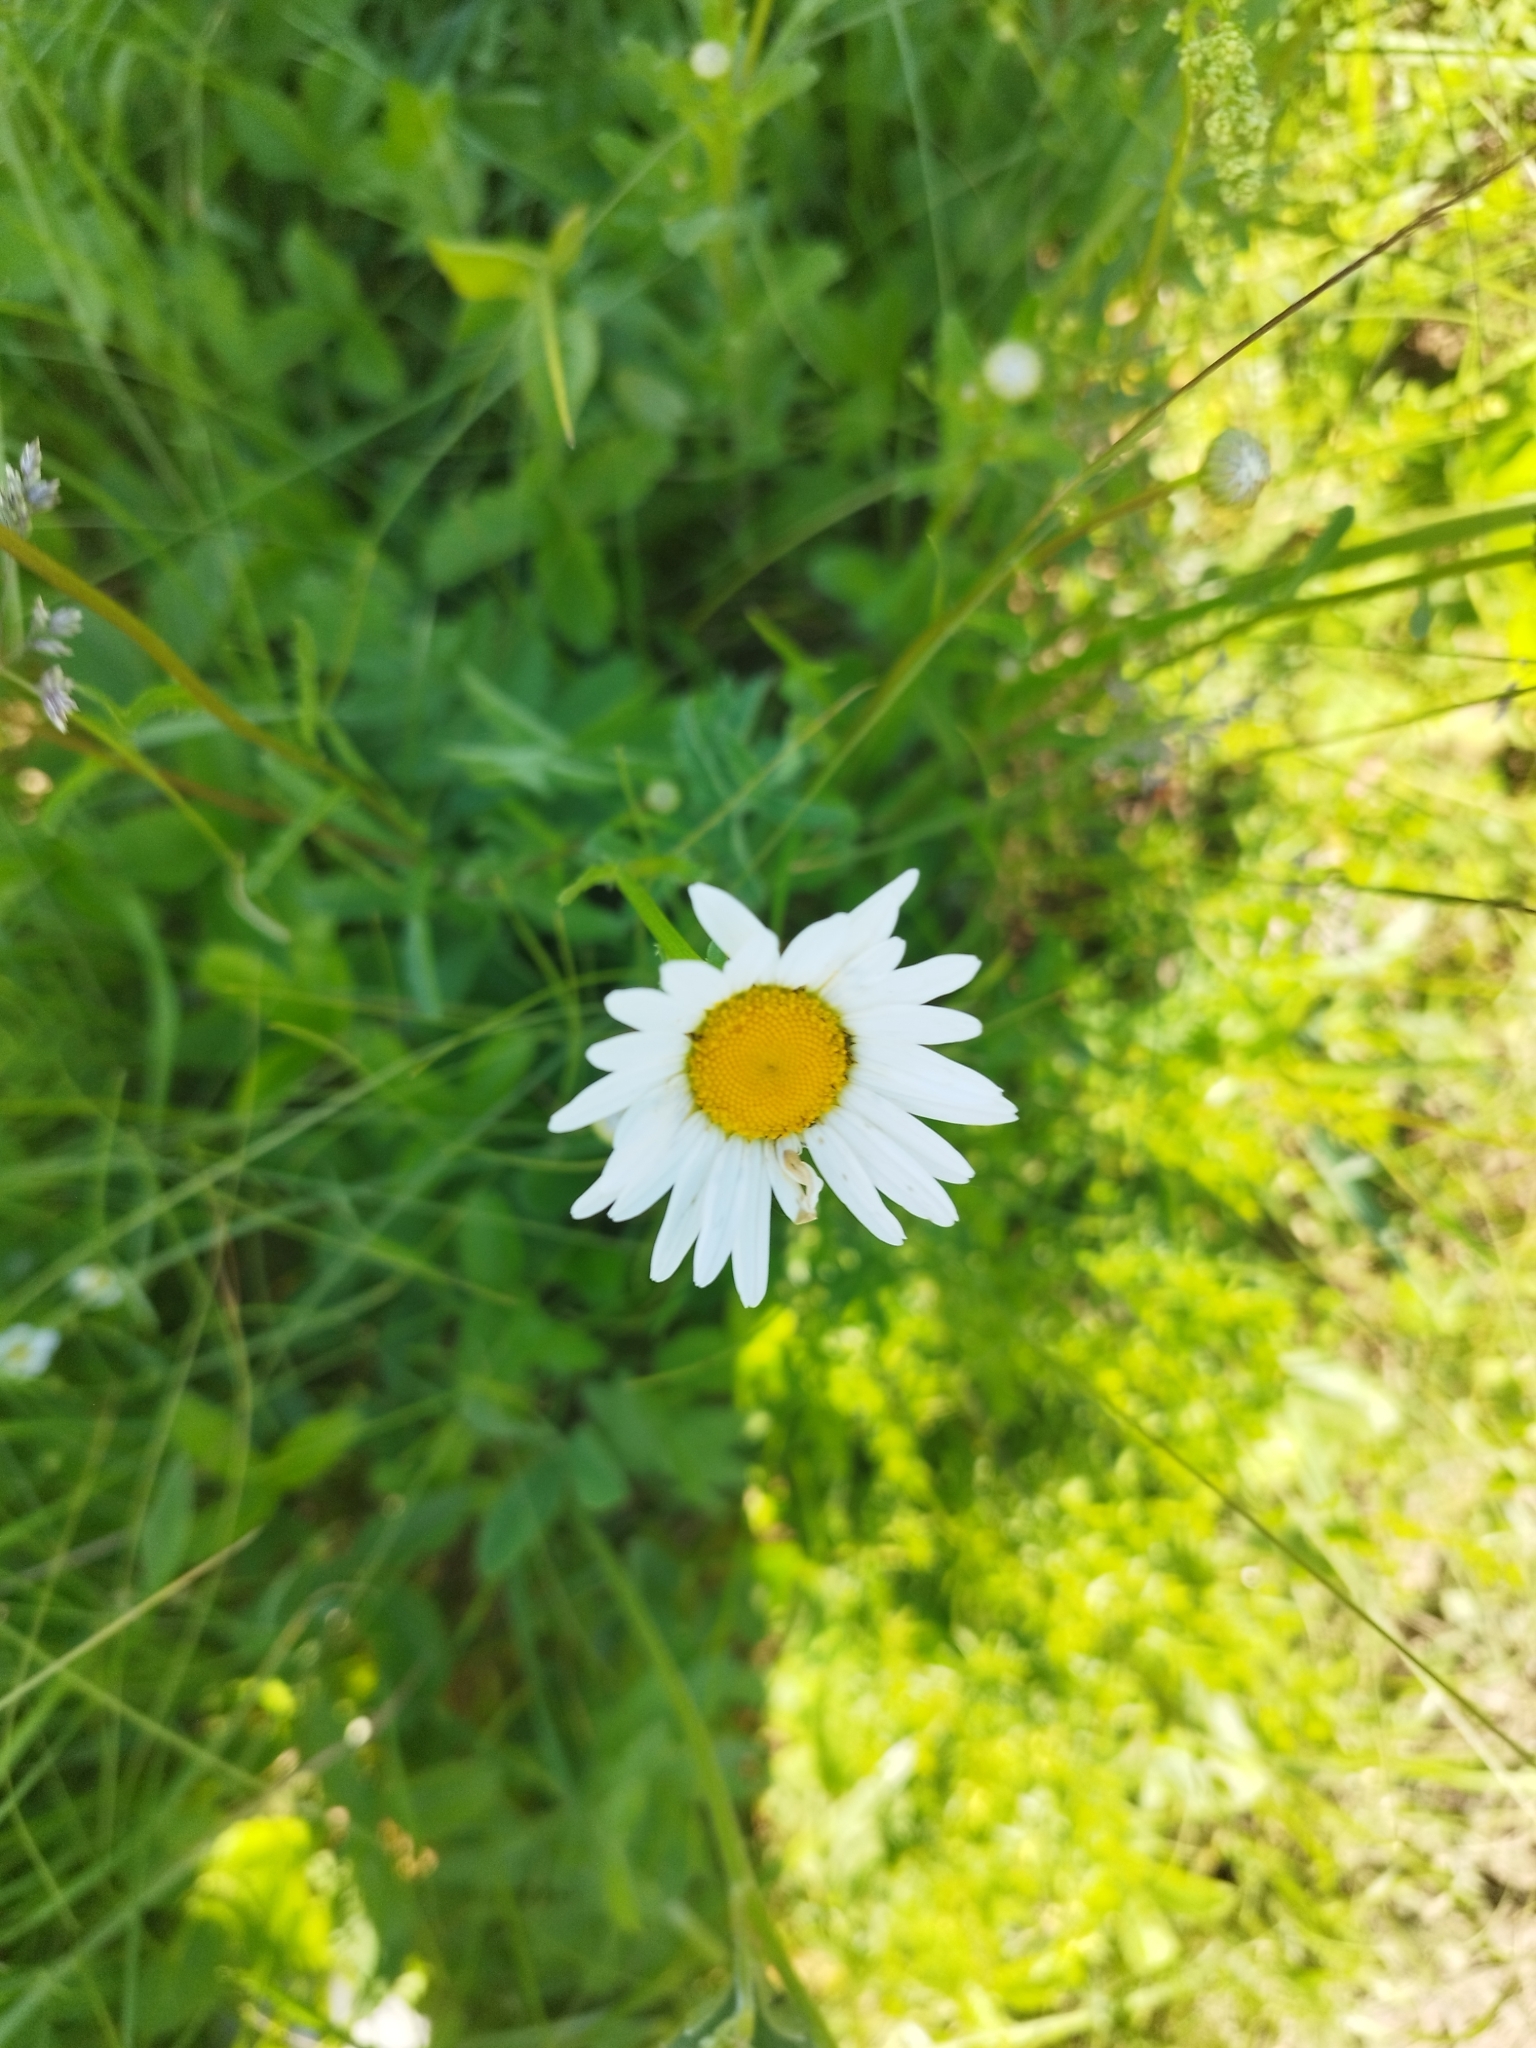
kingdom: Plantae
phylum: Tracheophyta
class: Magnoliopsida
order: Asterales
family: Asteraceae
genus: Leucanthemum
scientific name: Leucanthemum vulgare
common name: Oxeye daisy
